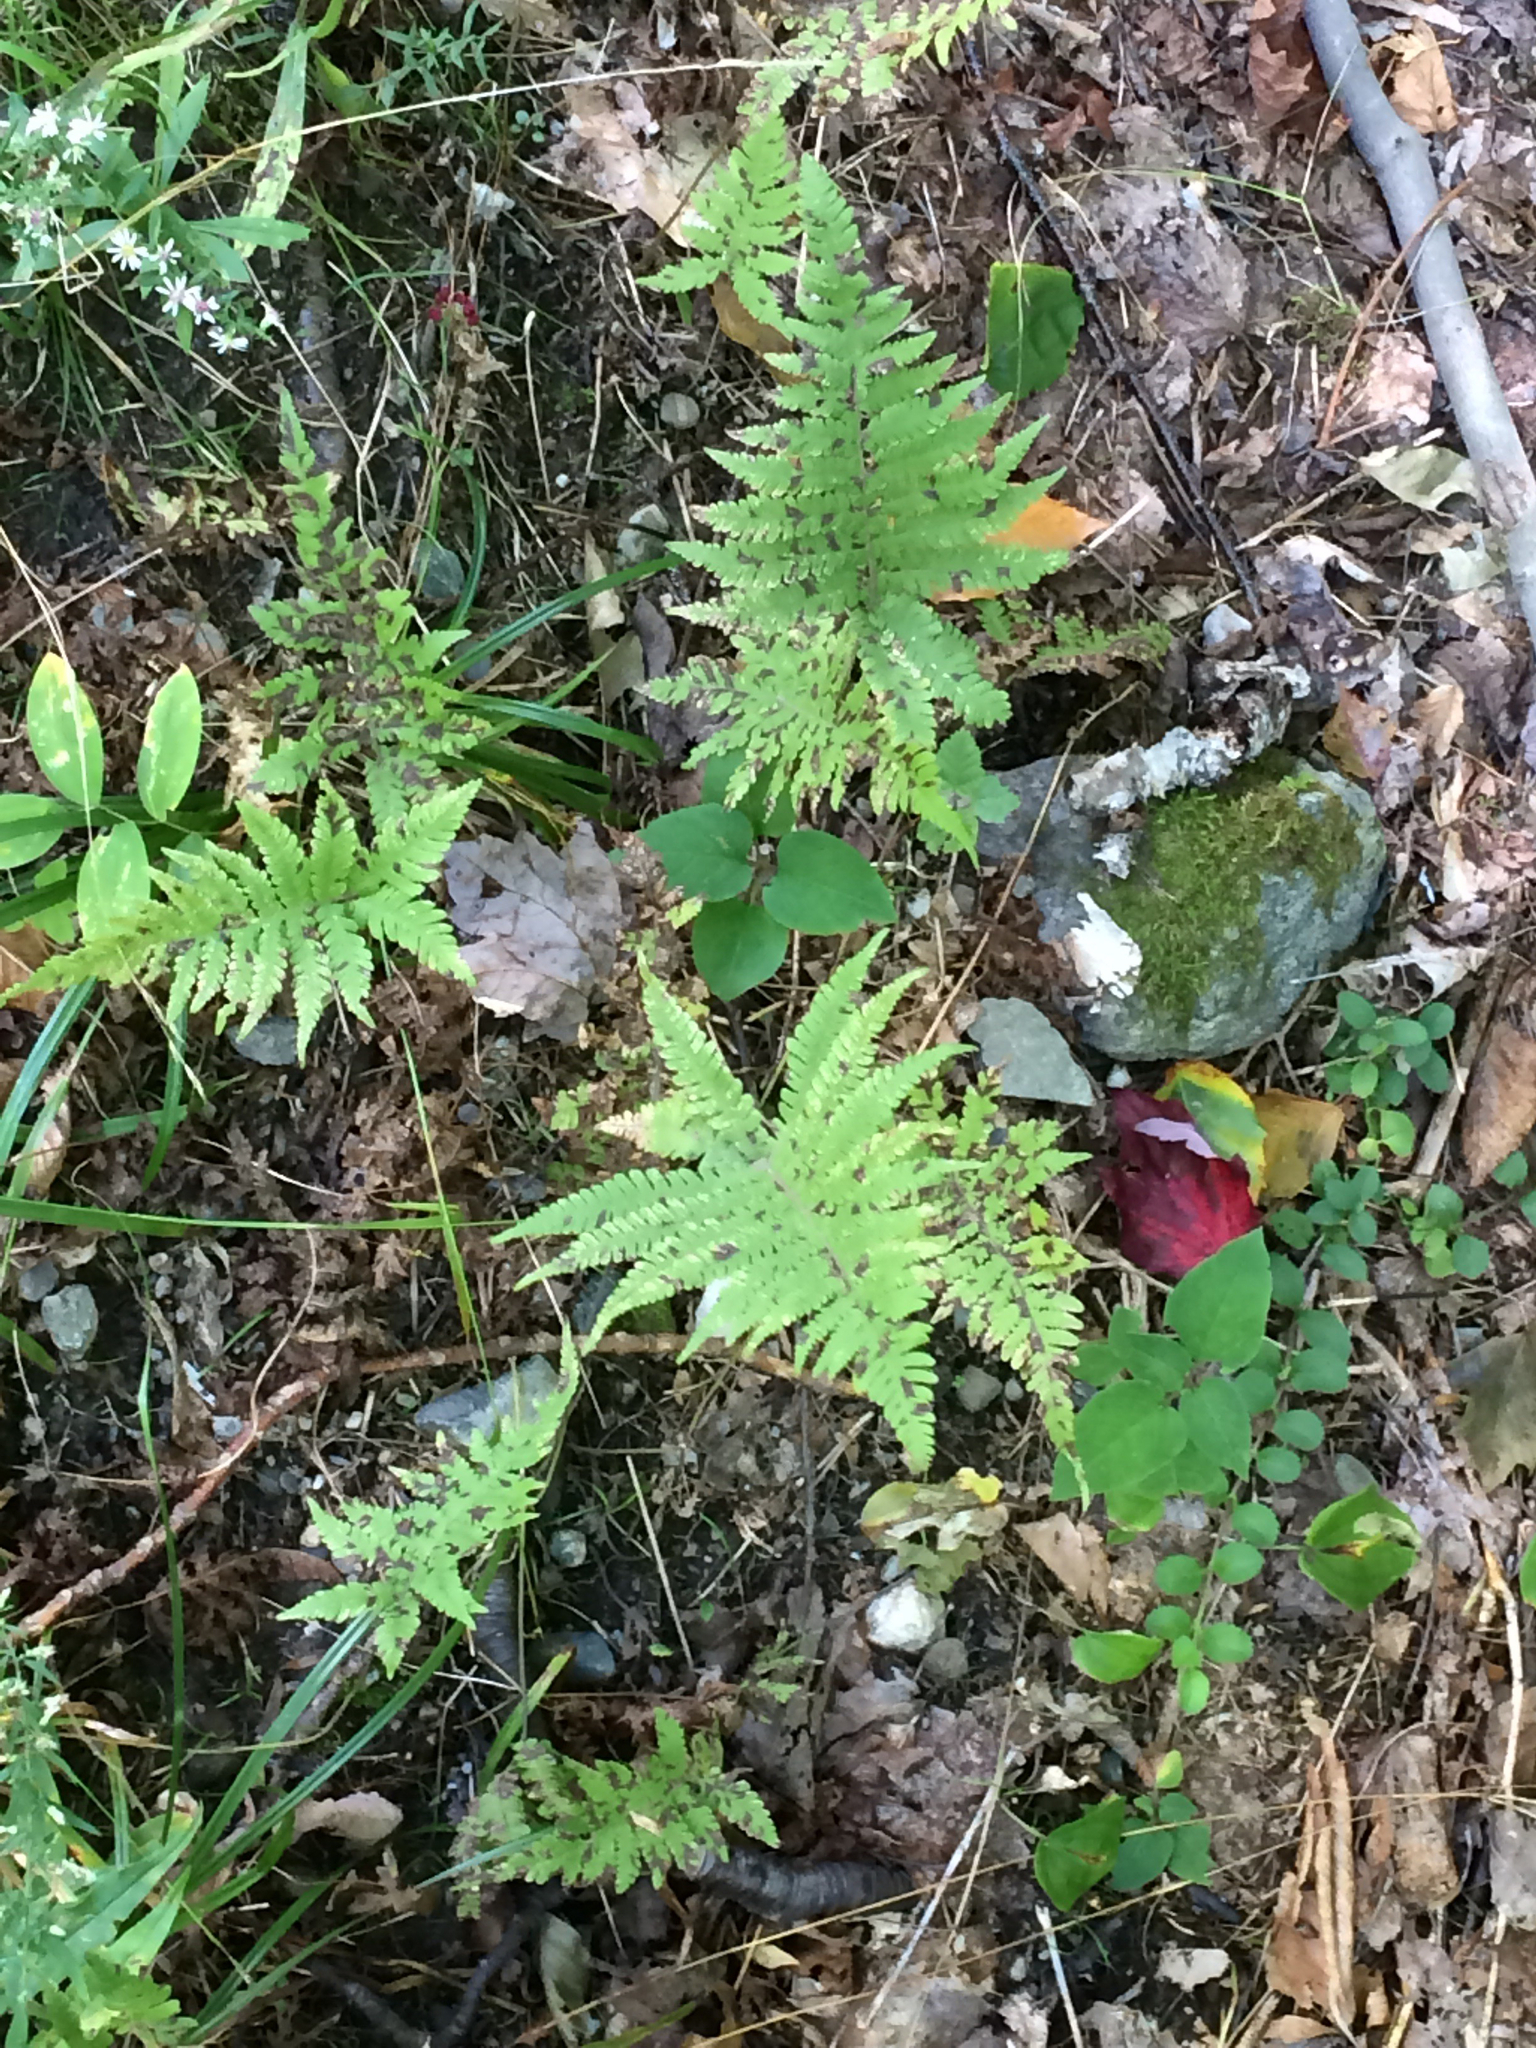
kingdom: Plantae
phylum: Tracheophyta
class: Polypodiopsida
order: Polypodiales
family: Thelypteridaceae
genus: Phegopteris
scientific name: Phegopteris connectilis
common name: Beech fern
